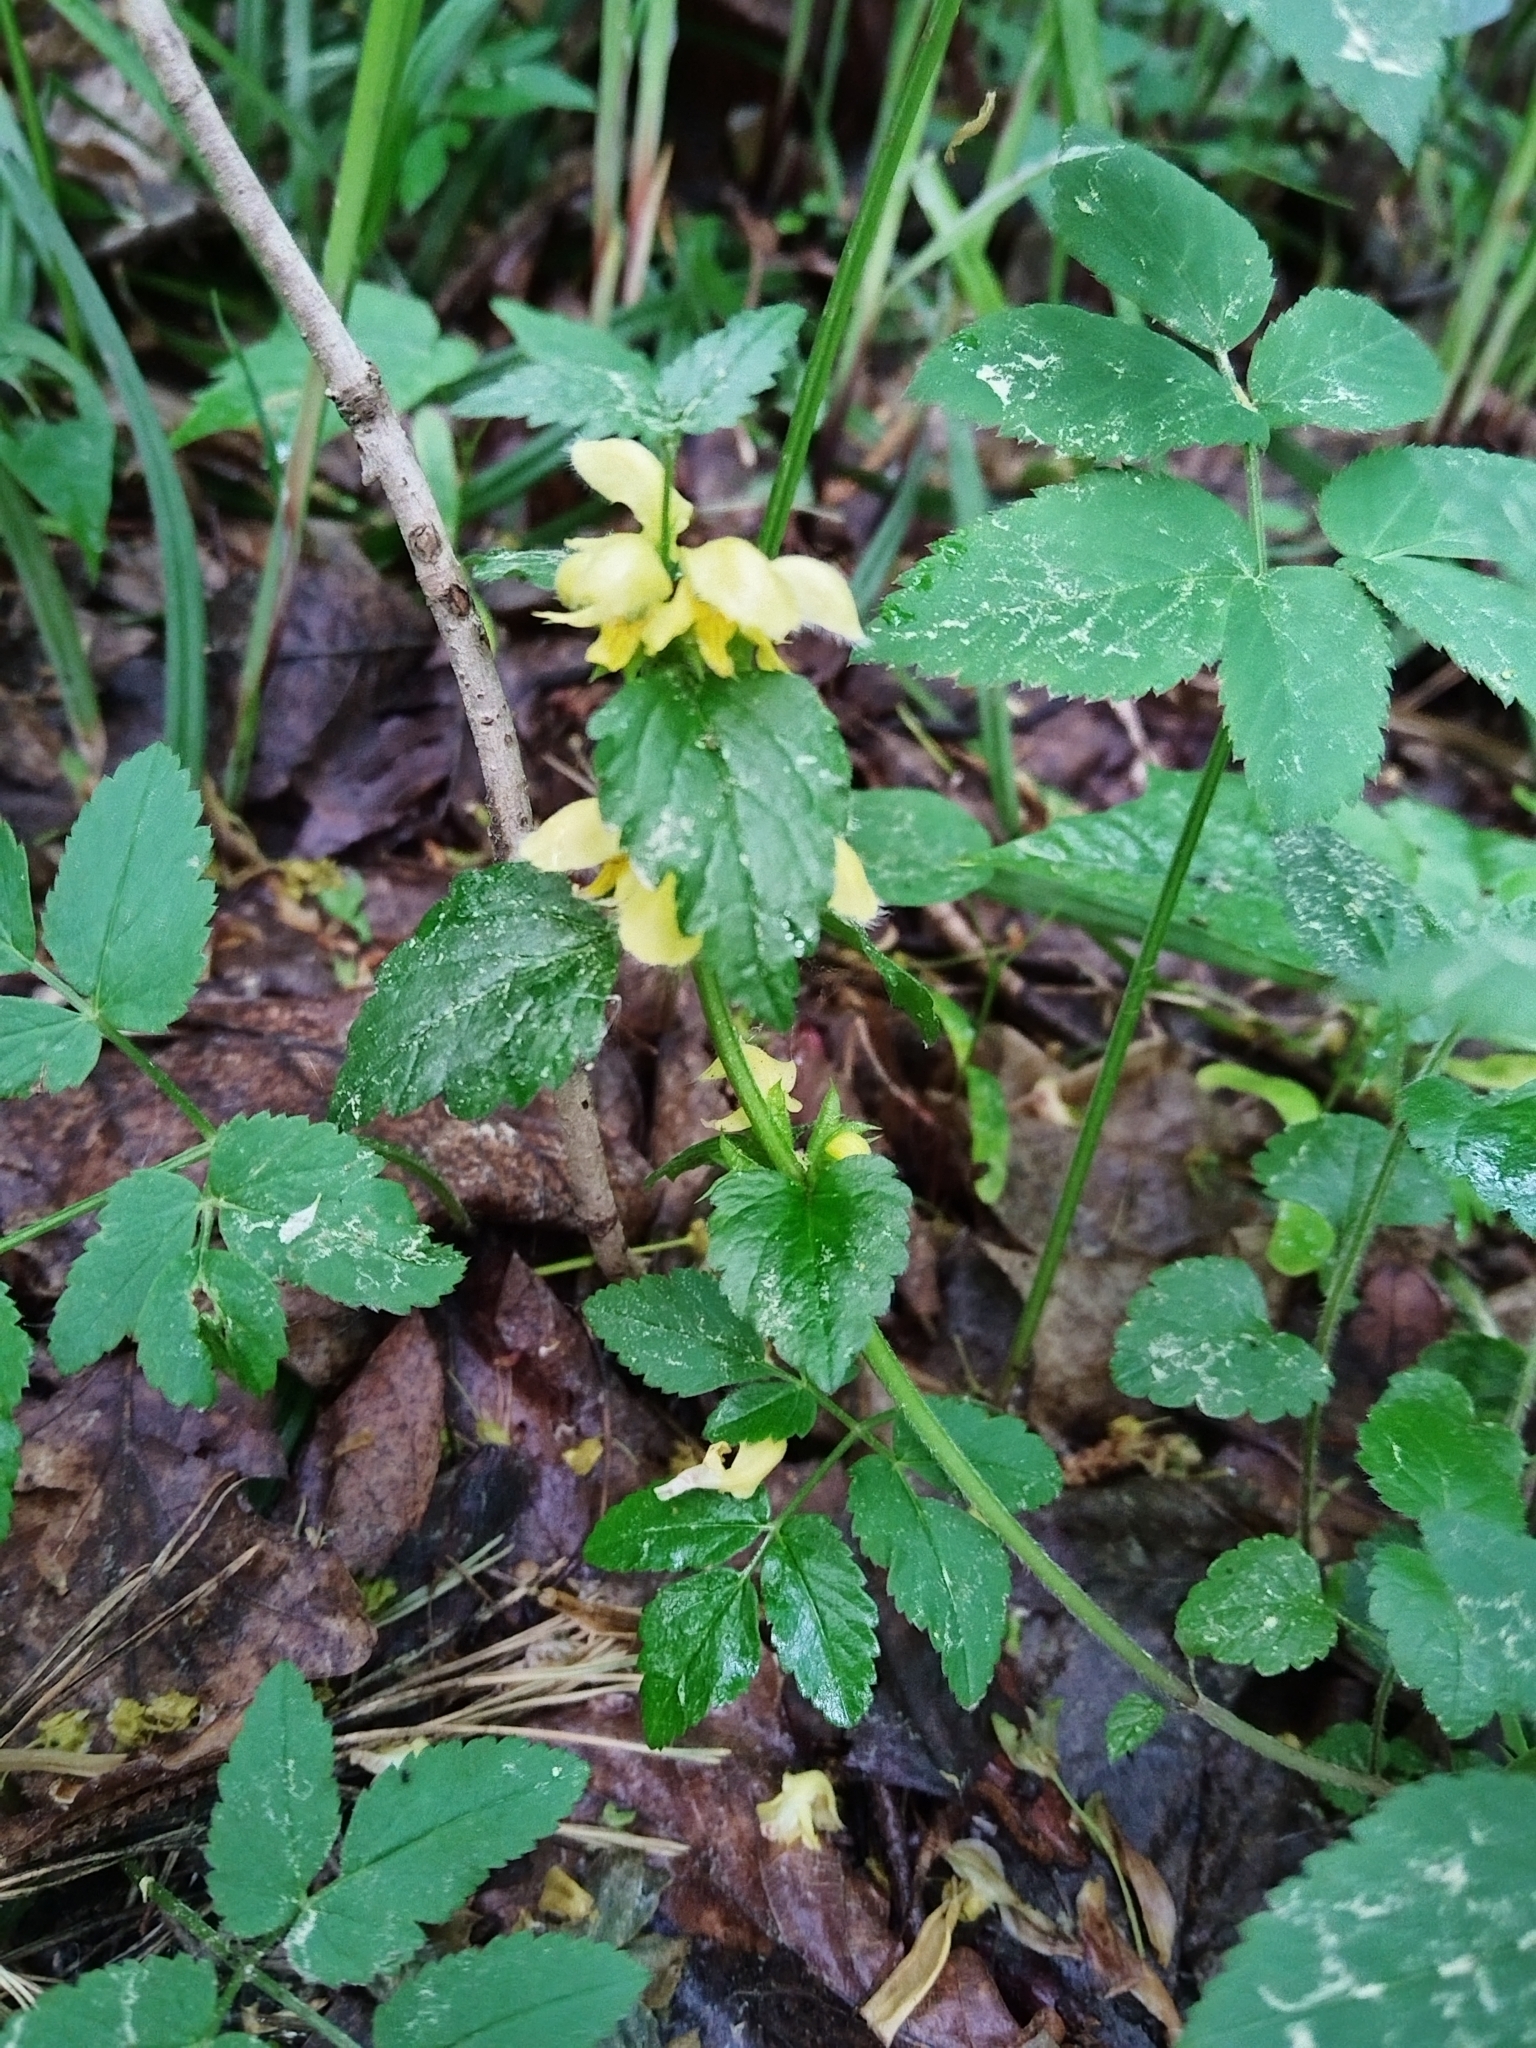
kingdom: Plantae
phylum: Tracheophyta
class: Magnoliopsida
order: Lamiales
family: Lamiaceae
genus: Lamium
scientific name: Lamium galeobdolon
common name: Yellow archangel
